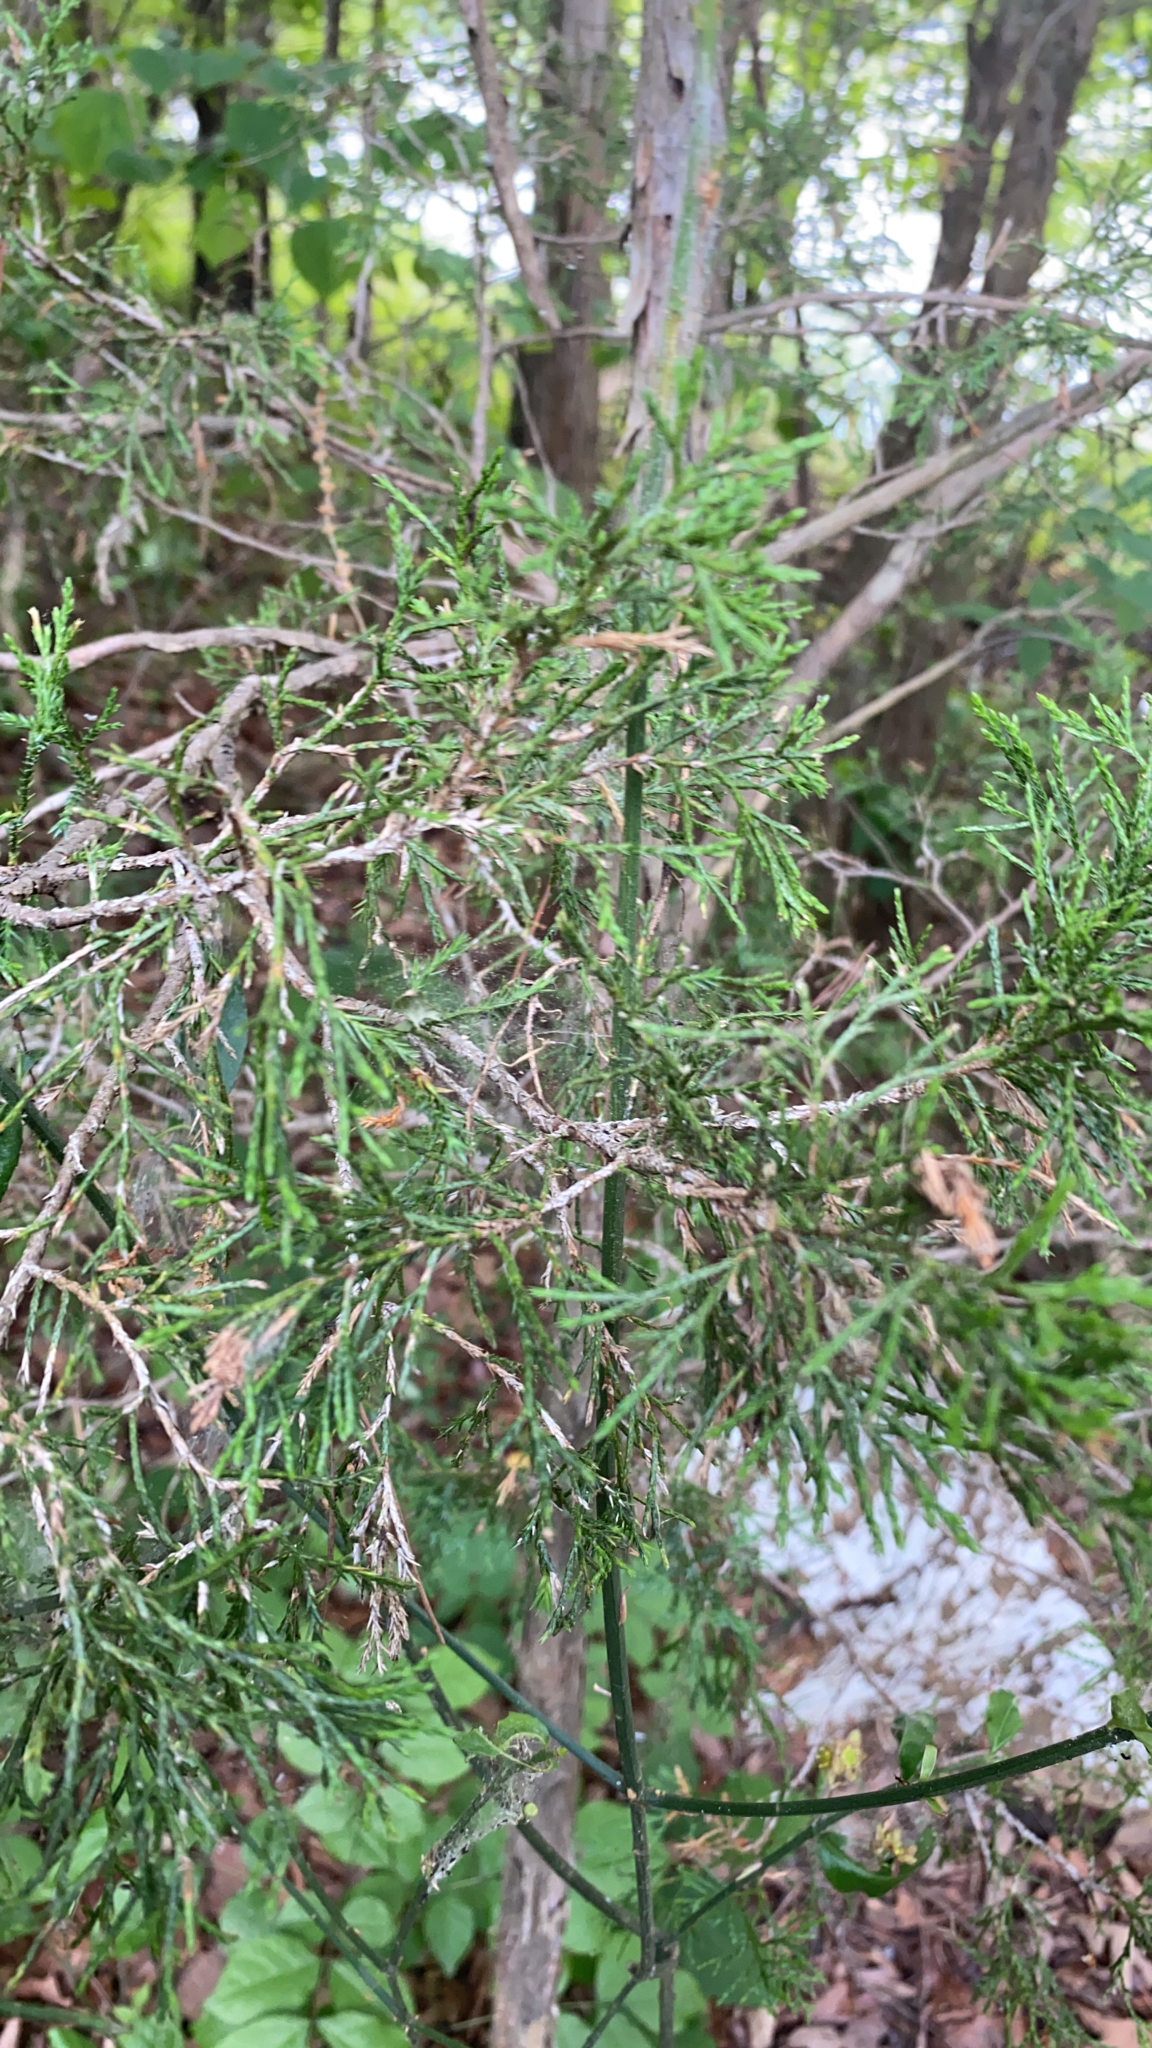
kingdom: Plantae
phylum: Tracheophyta
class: Pinopsida
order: Pinales
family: Cupressaceae
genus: Juniperus
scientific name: Juniperus virginiana
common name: Red juniper
